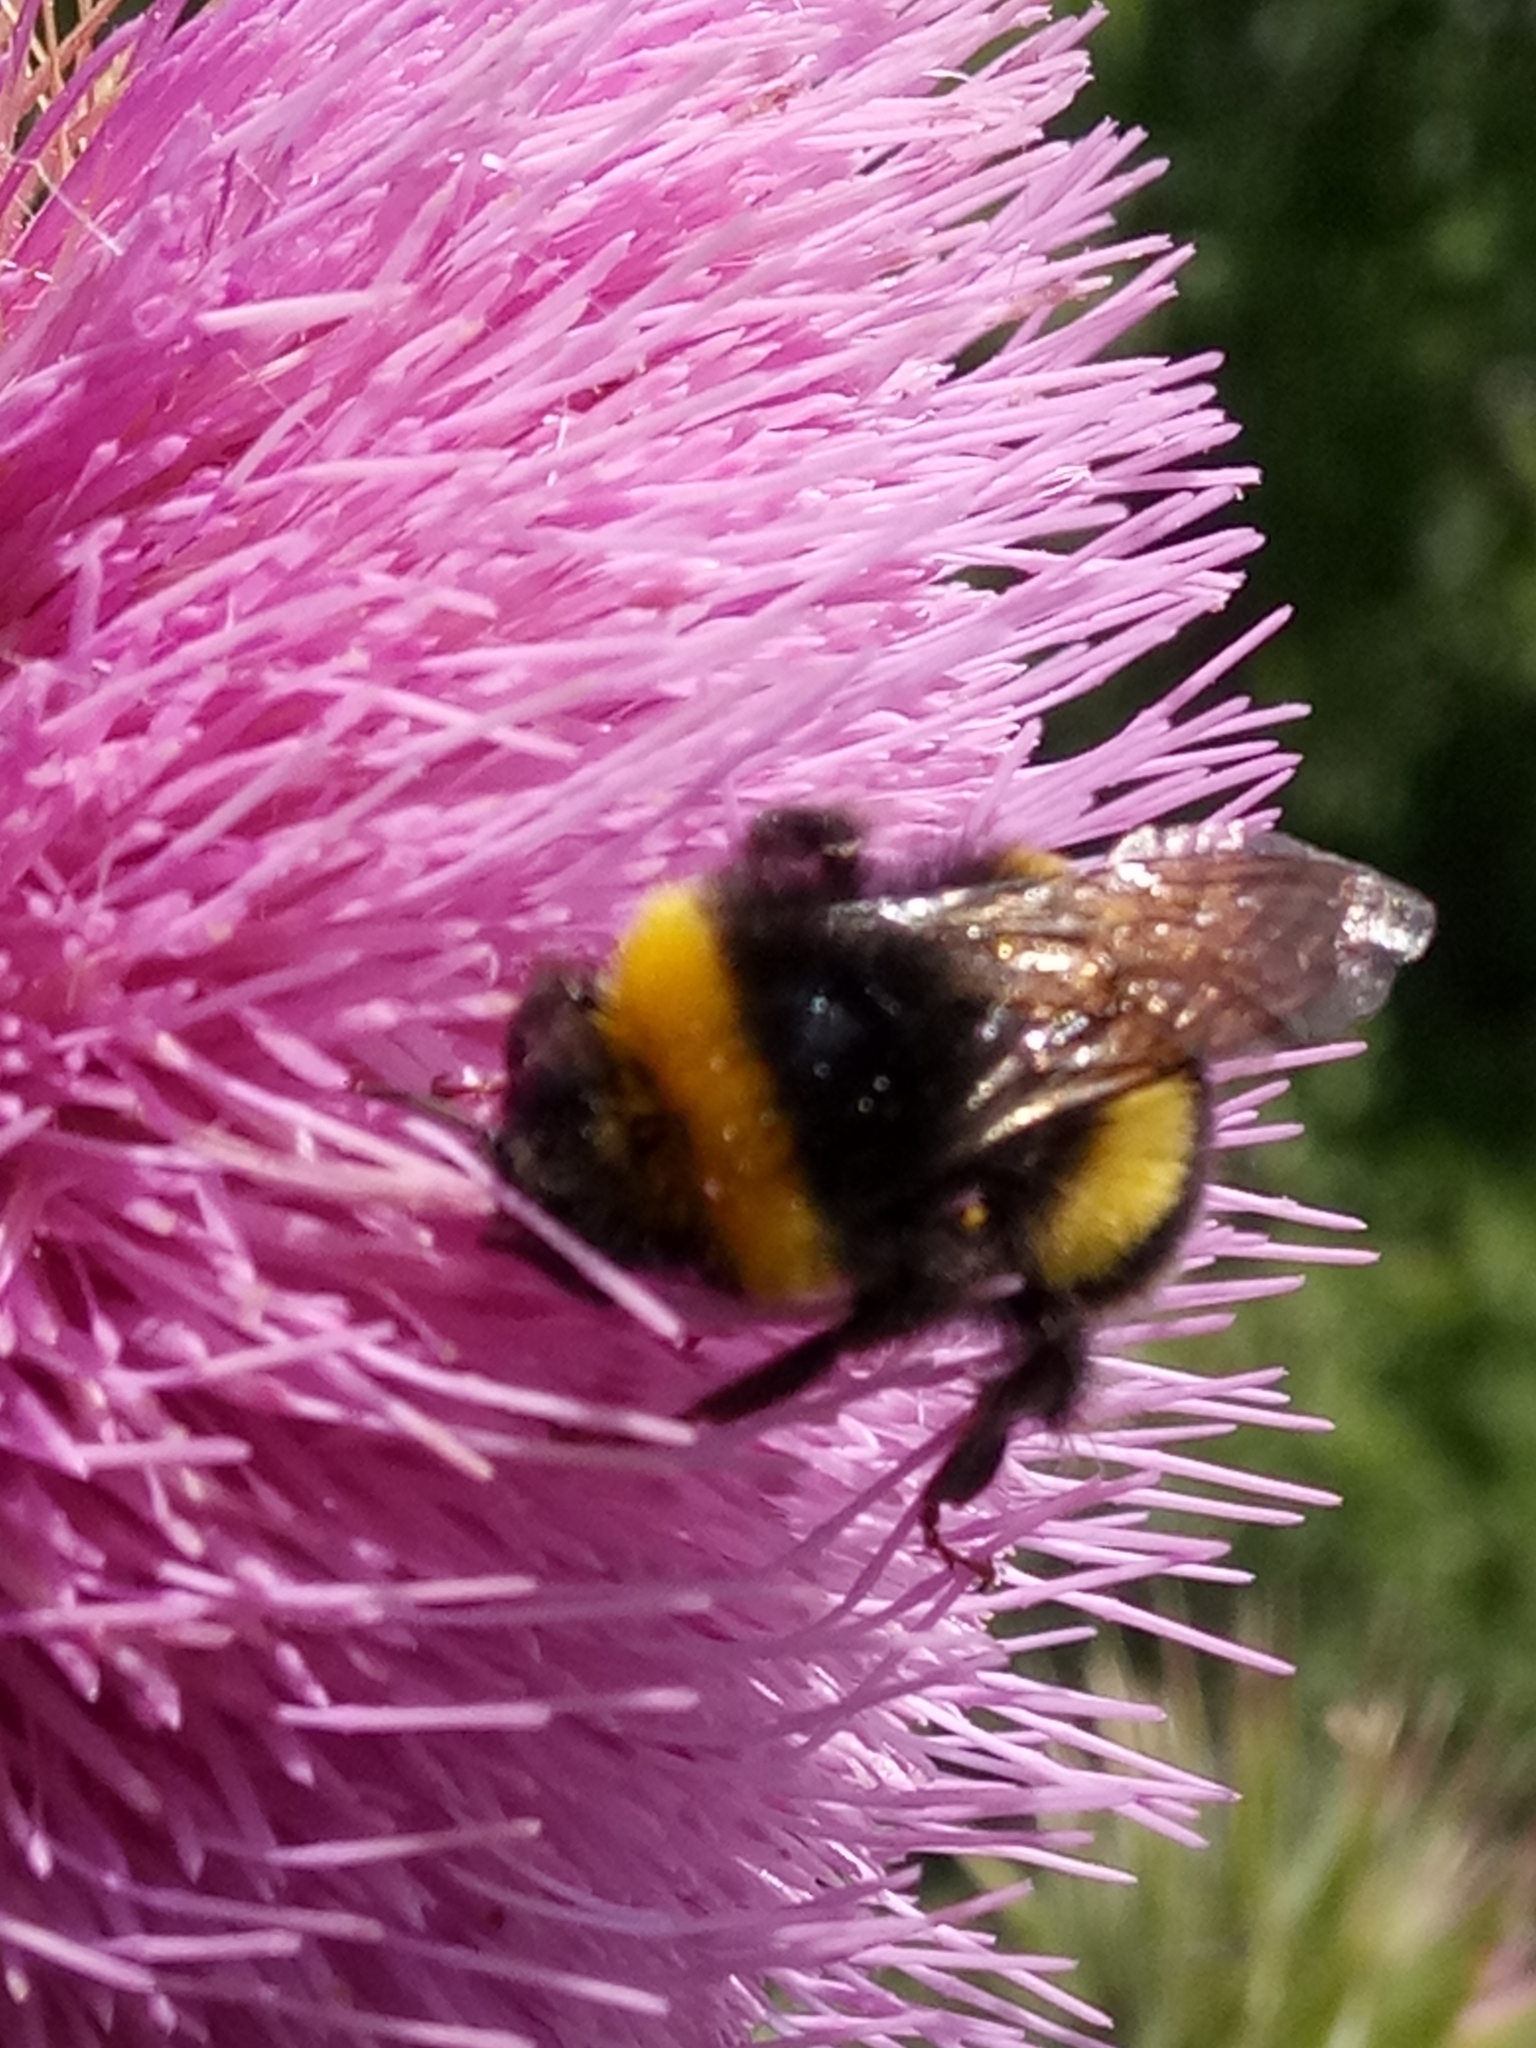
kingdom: Animalia
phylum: Arthropoda
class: Insecta
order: Hymenoptera
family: Apidae
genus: Bombus
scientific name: Bombus terrestris
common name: Buff-tailed bumblebee
